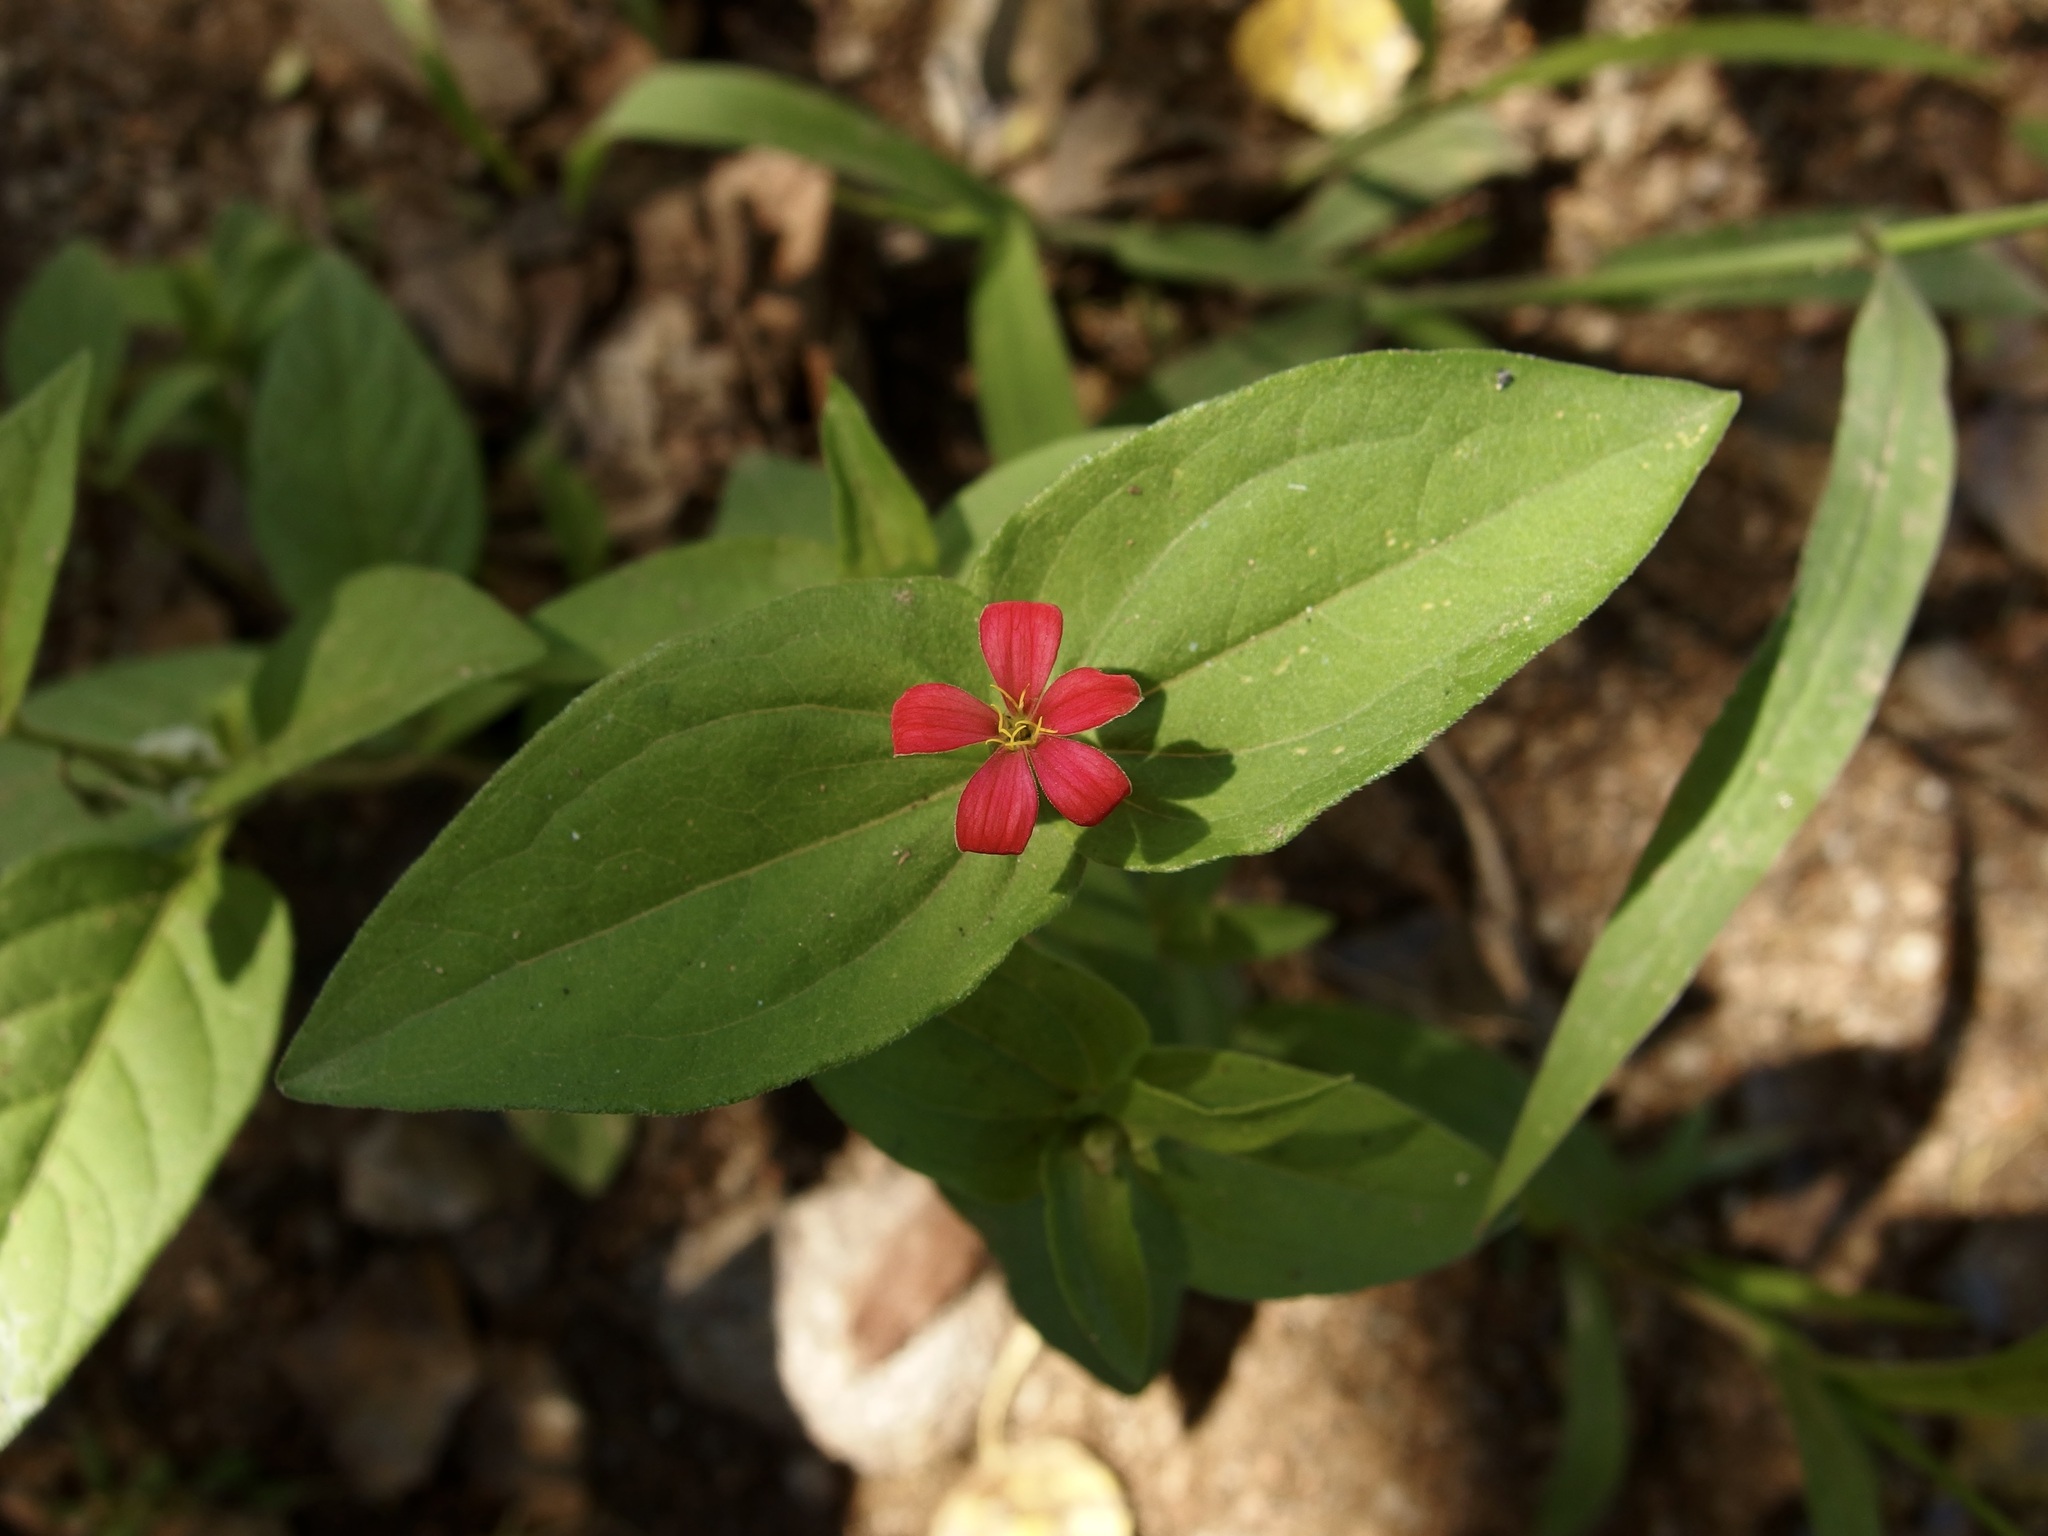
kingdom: Plantae
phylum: Tracheophyta
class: Magnoliopsida
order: Asterales
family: Asteraceae
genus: Zinnia
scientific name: Zinnia peruviana
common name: Peruvian zinnia
